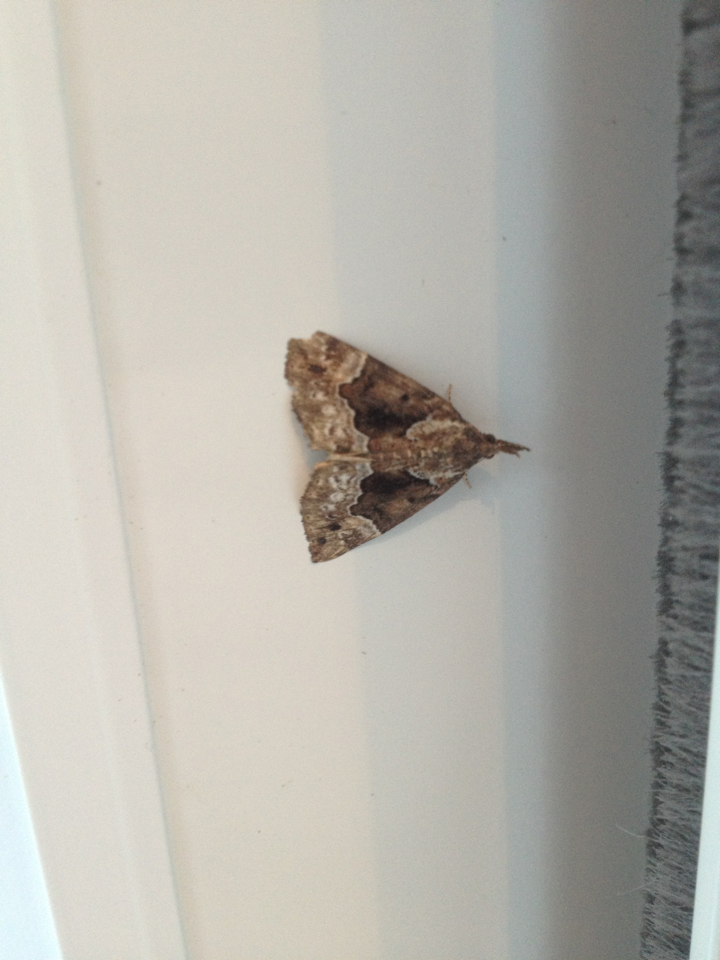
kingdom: Animalia
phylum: Arthropoda
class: Insecta
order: Lepidoptera
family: Erebidae
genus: Hypena
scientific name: Hypena palparia
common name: Mottled bomolocha moth
